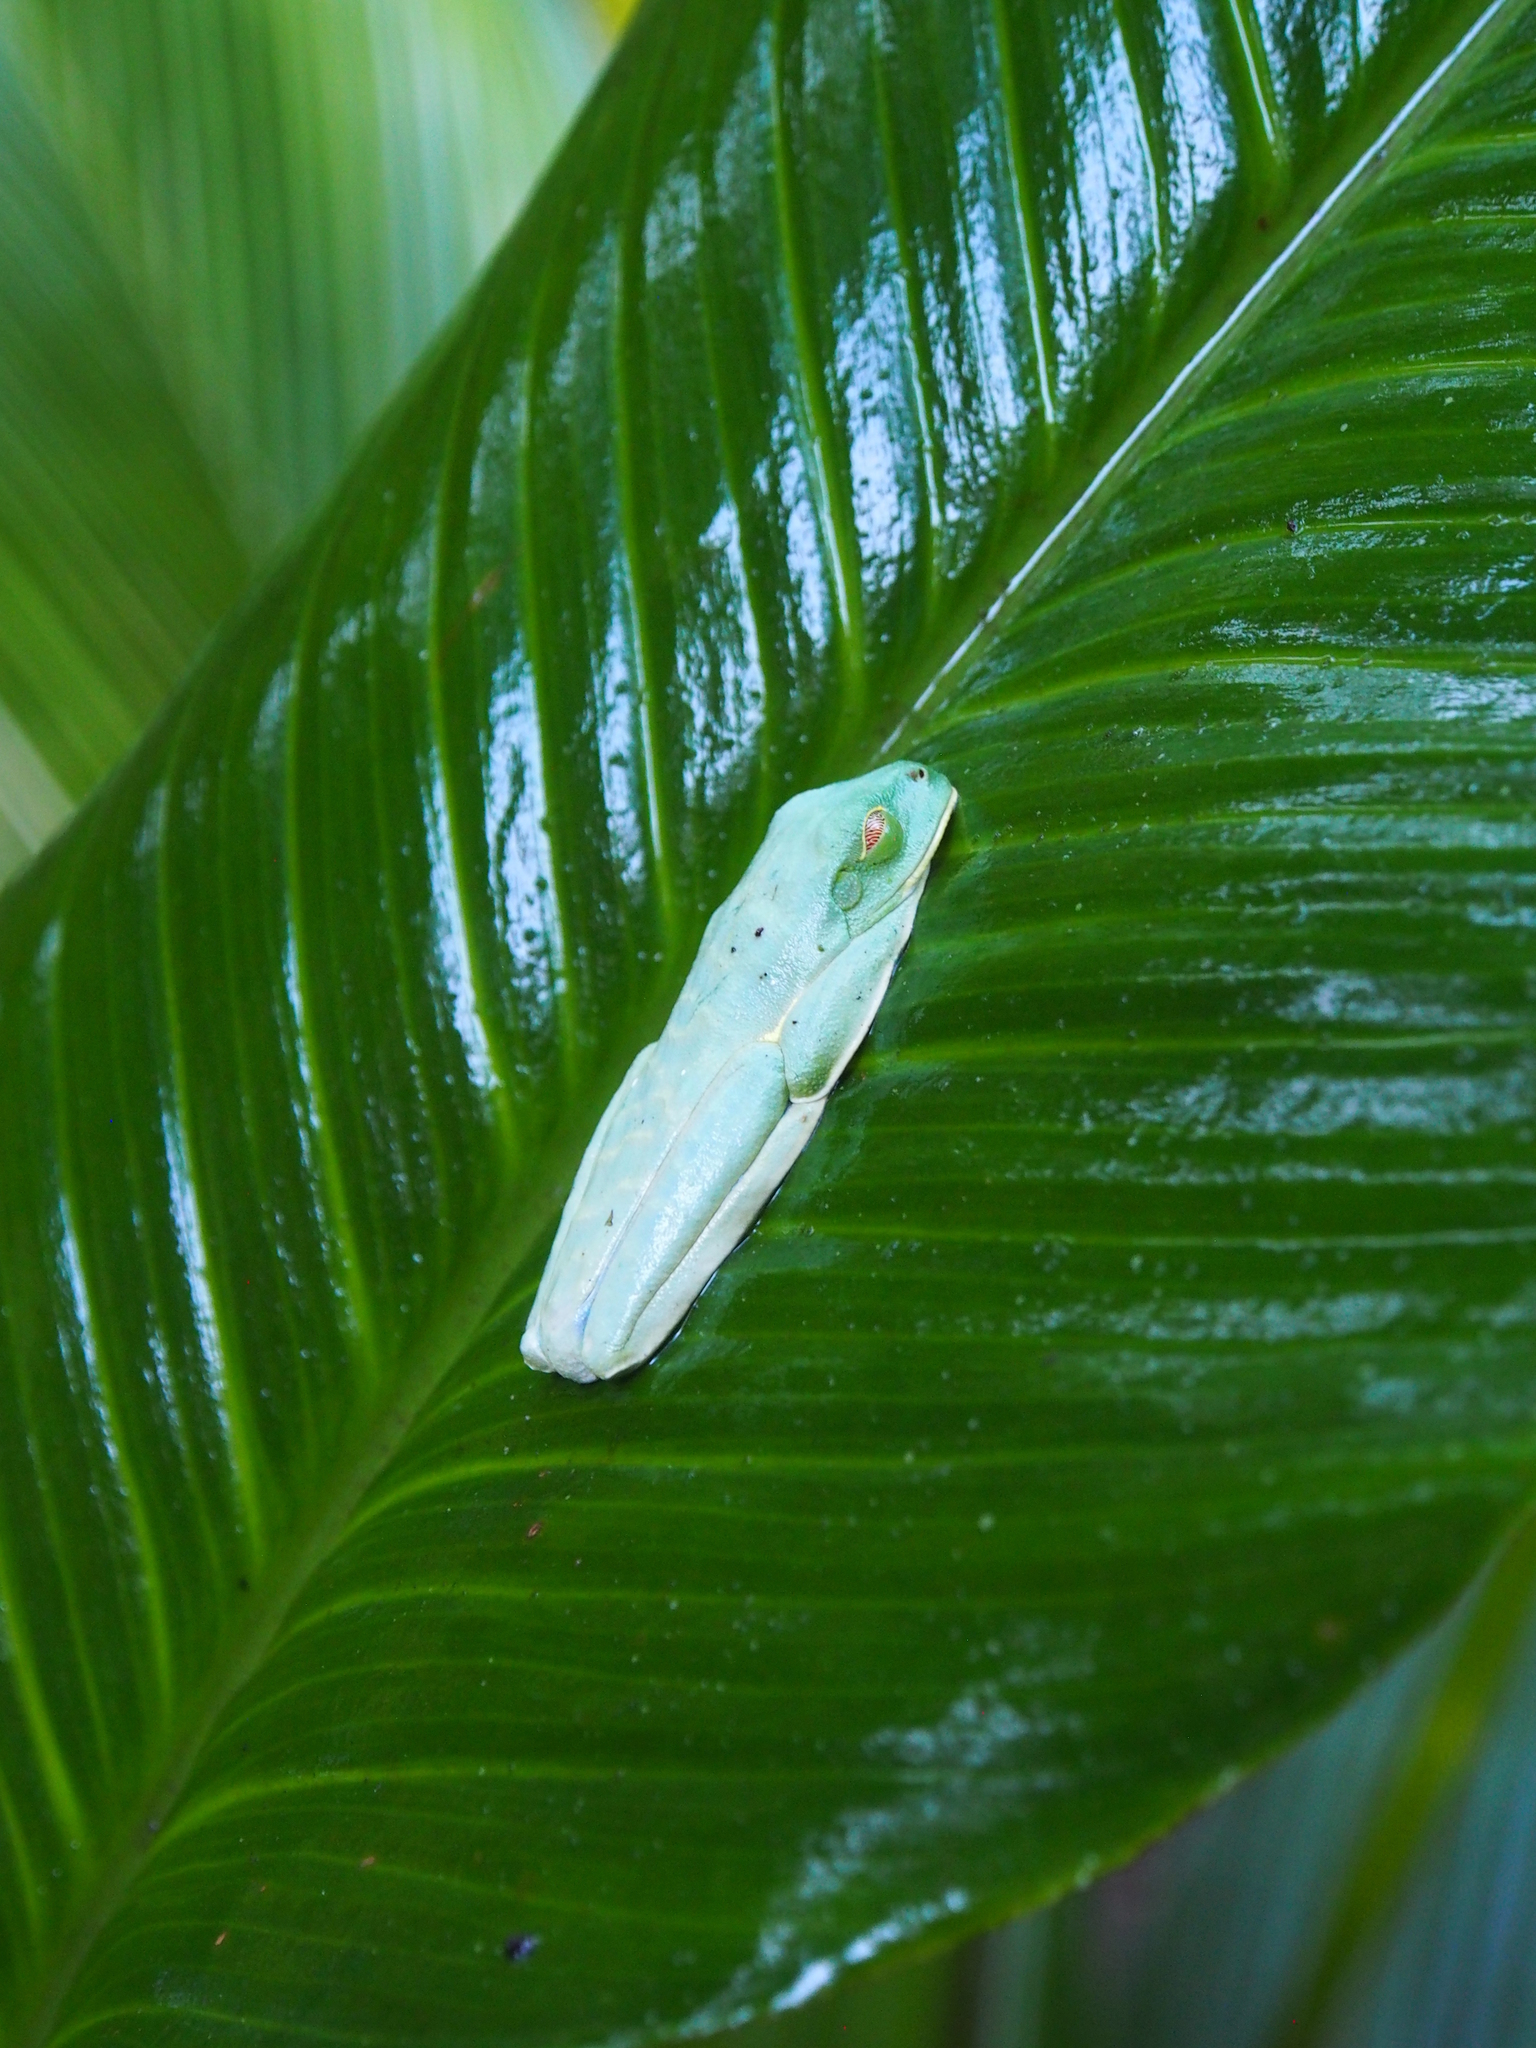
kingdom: Animalia
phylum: Chordata
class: Amphibia
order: Anura
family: Phyllomedusidae
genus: Agalychnis
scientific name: Agalychnis callidryas
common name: Red-eyed treefrog
